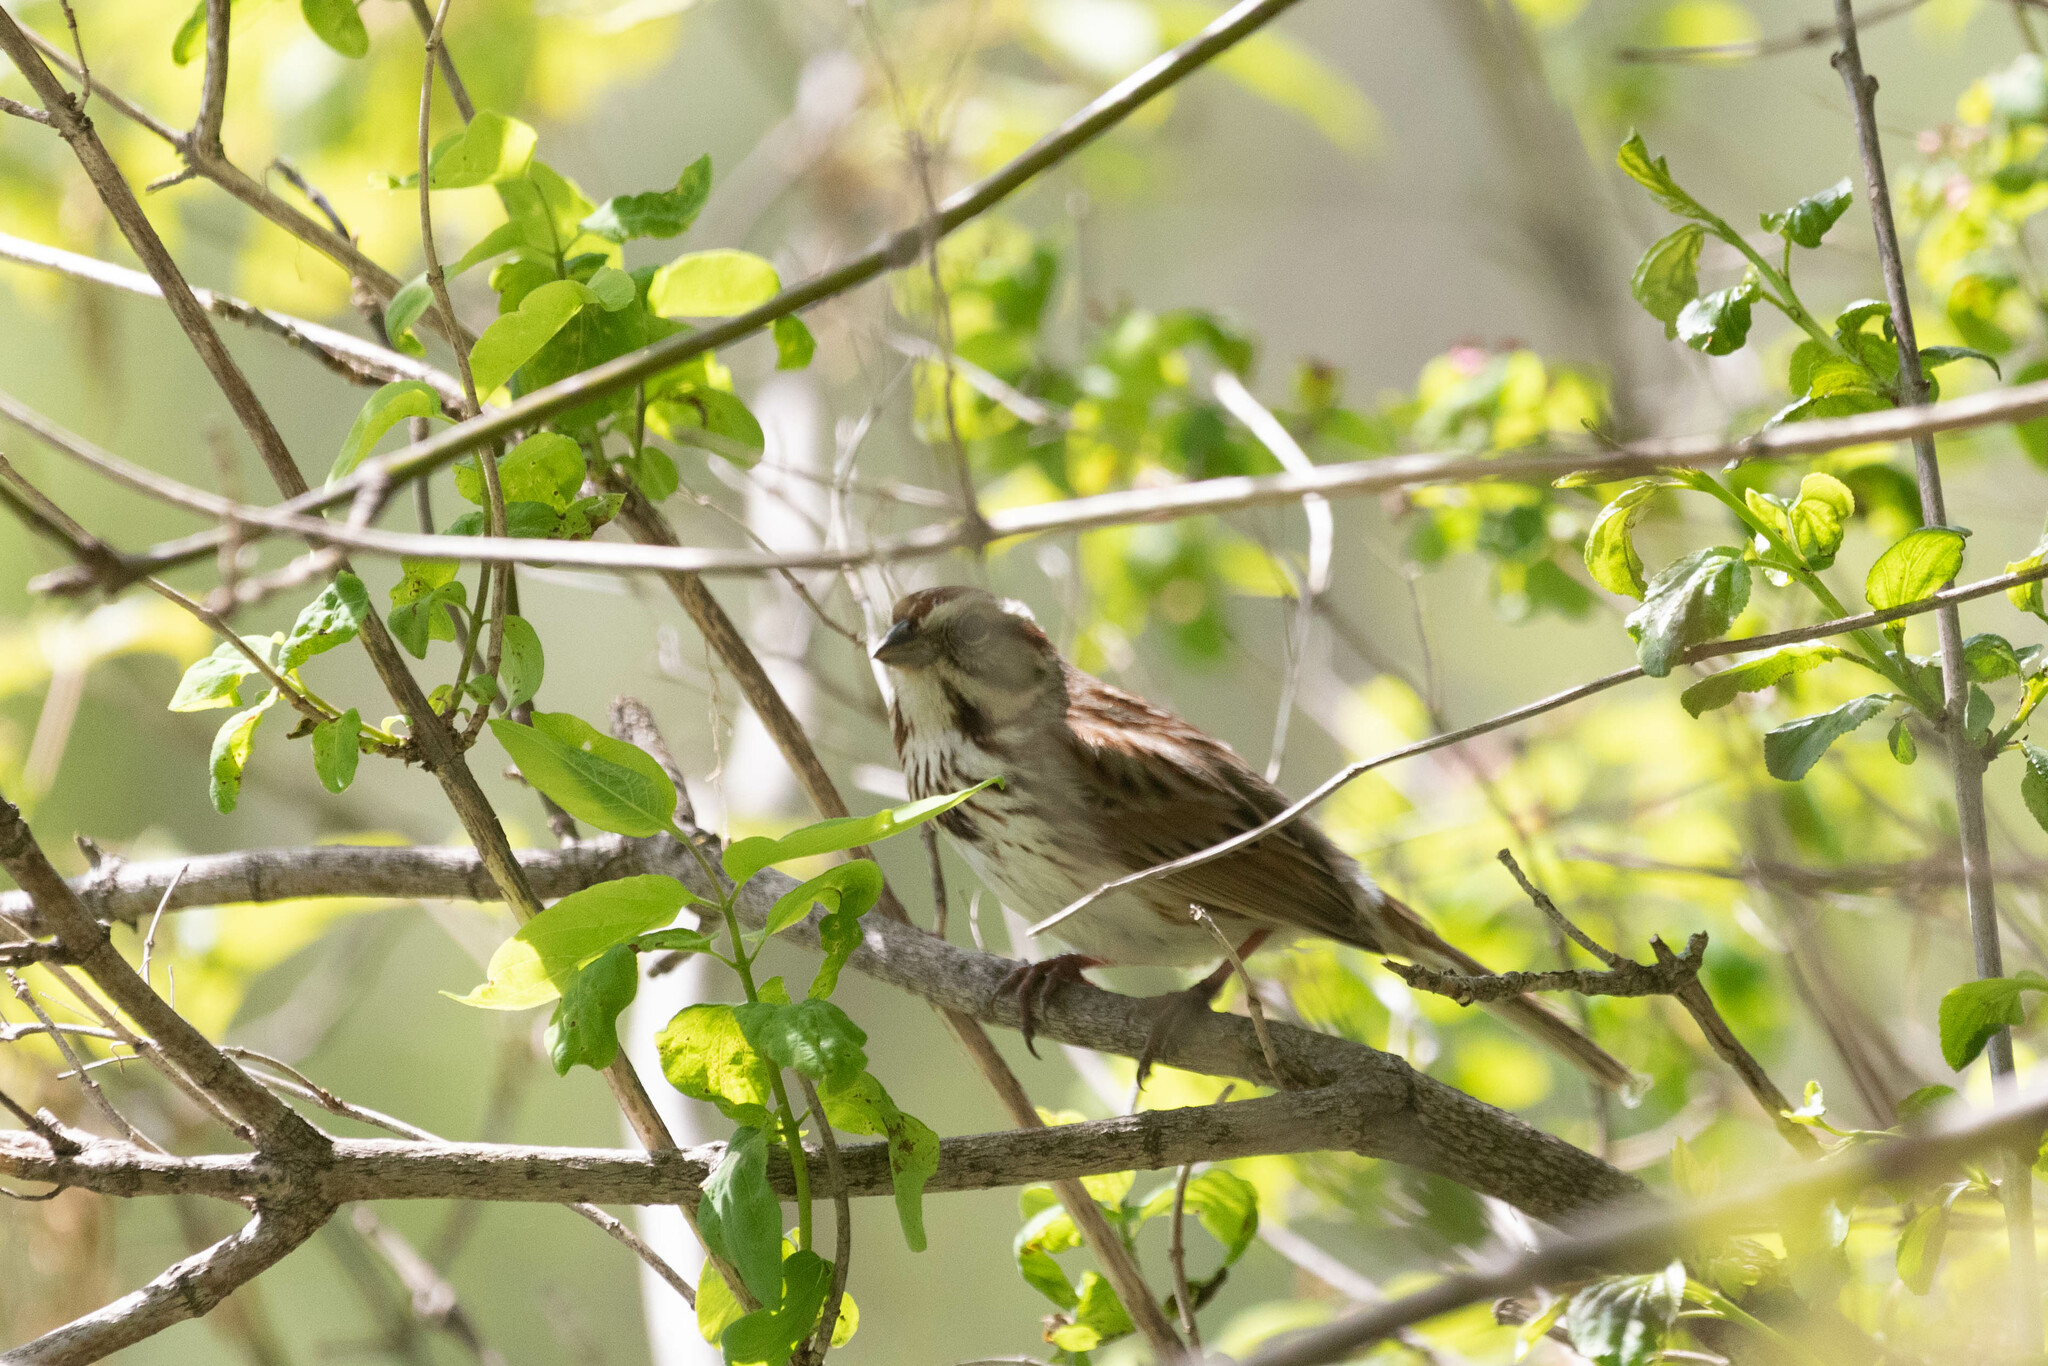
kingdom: Animalia
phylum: Chordata
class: Aves
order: Passeriformes
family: Passerellidae
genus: Melospiza
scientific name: Melospiza melodia
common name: Song sparrow
